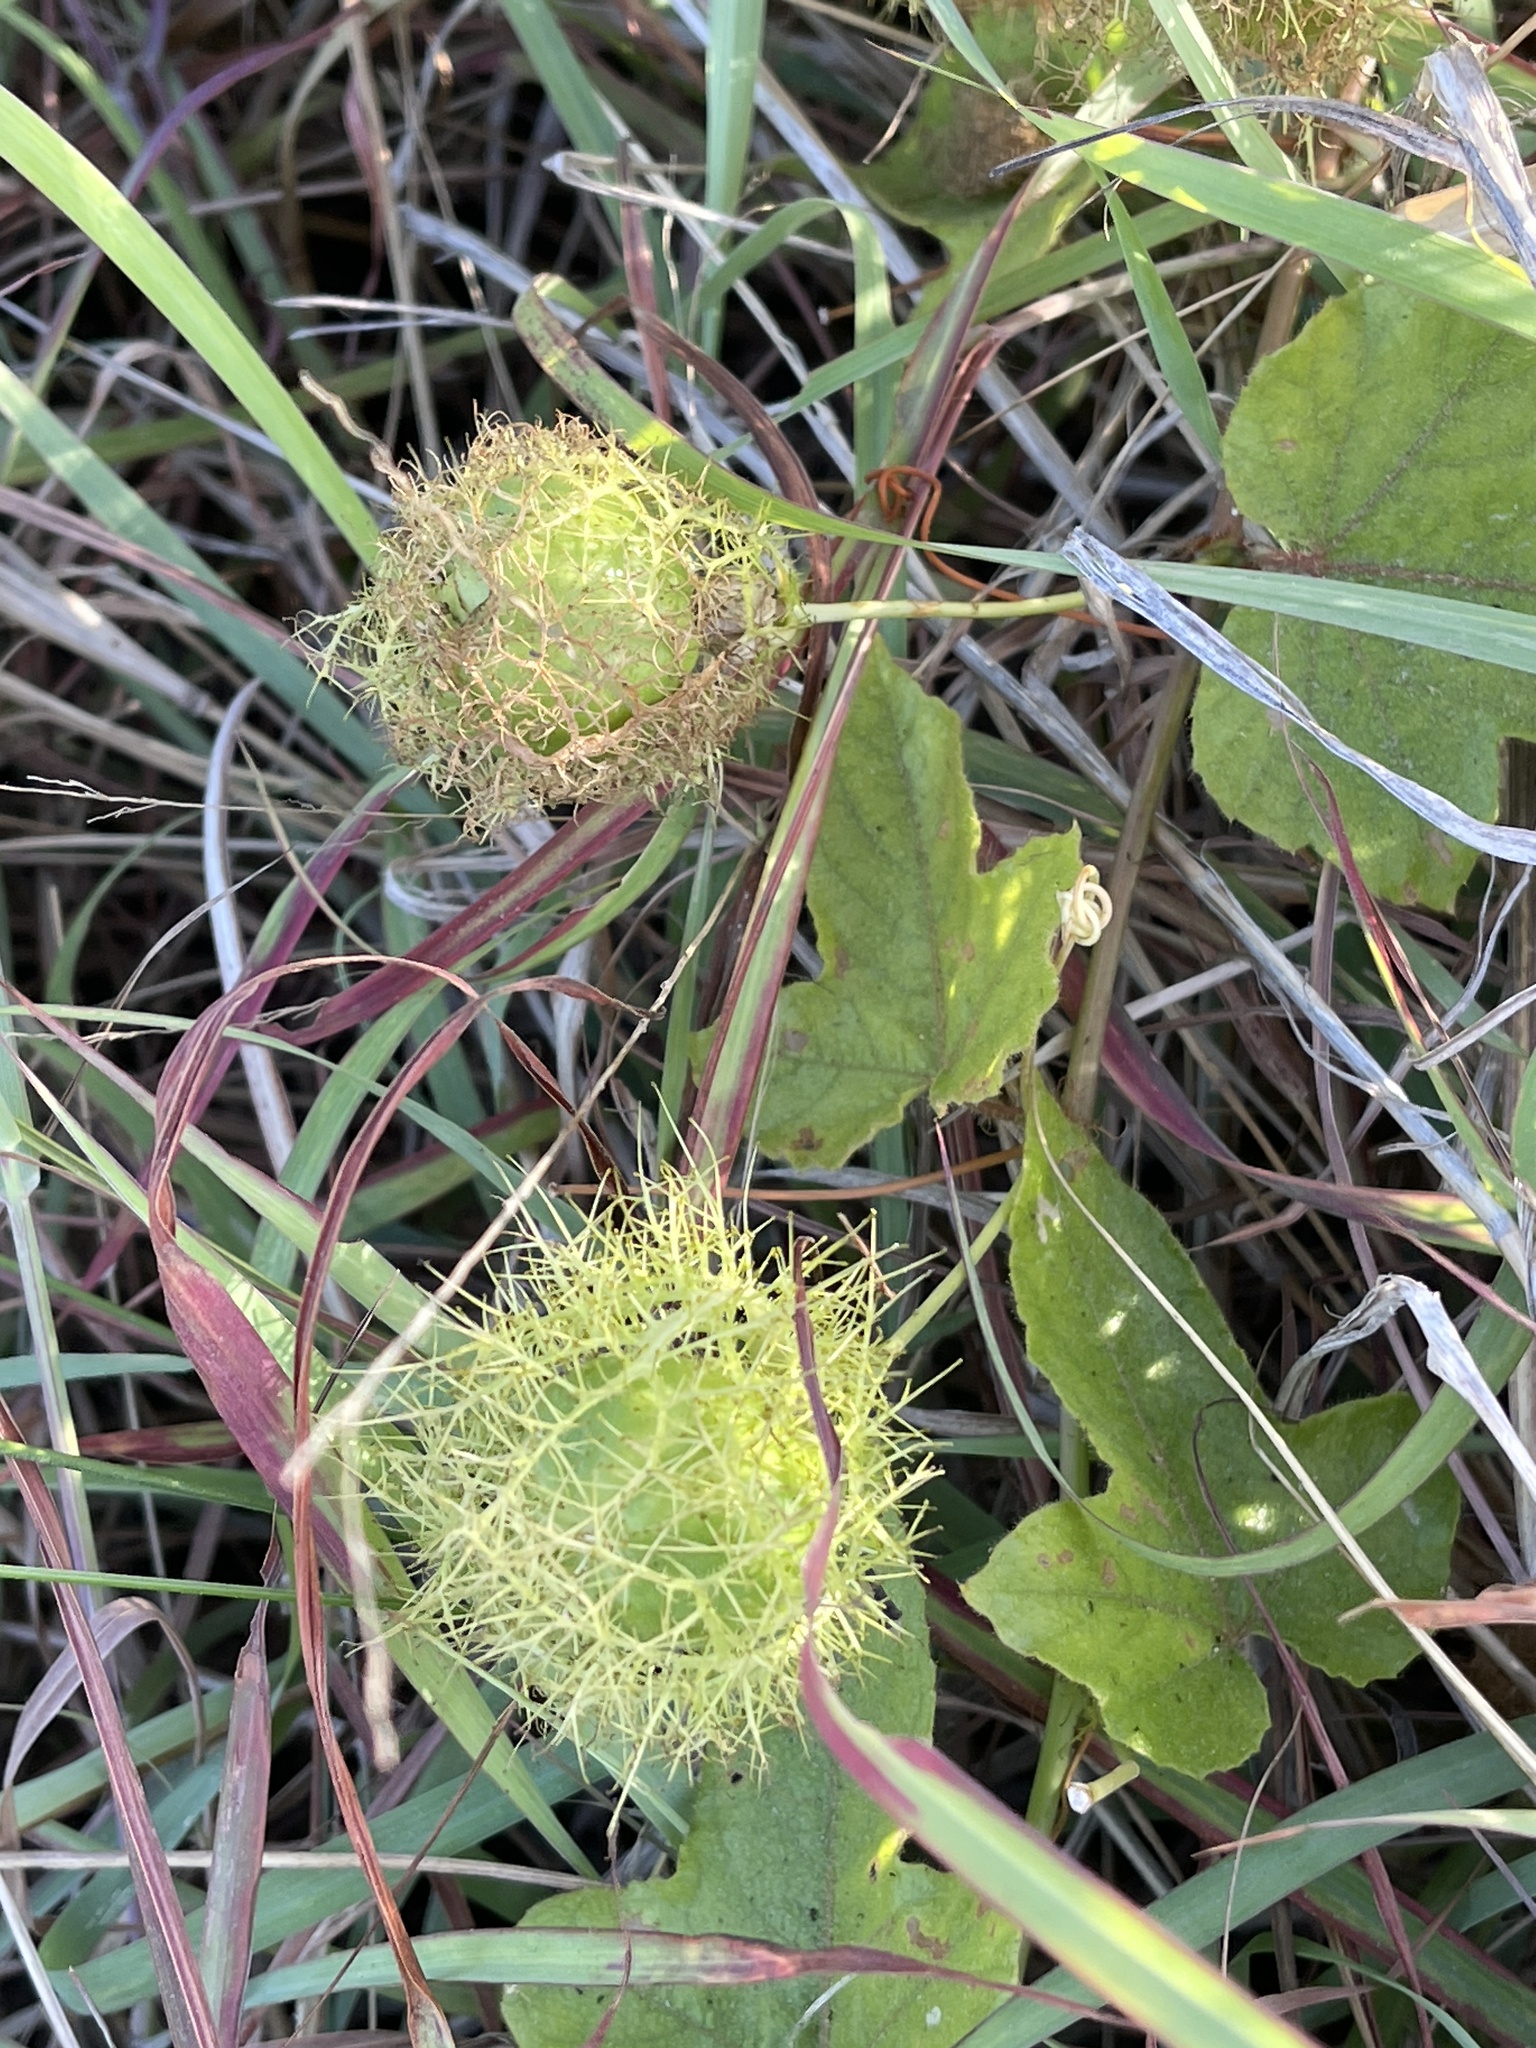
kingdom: Plantae
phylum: Tracheophyta
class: Magnoliopsida
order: Malpighiales
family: Passifloraceae
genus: Passiflora
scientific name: Passiflora
